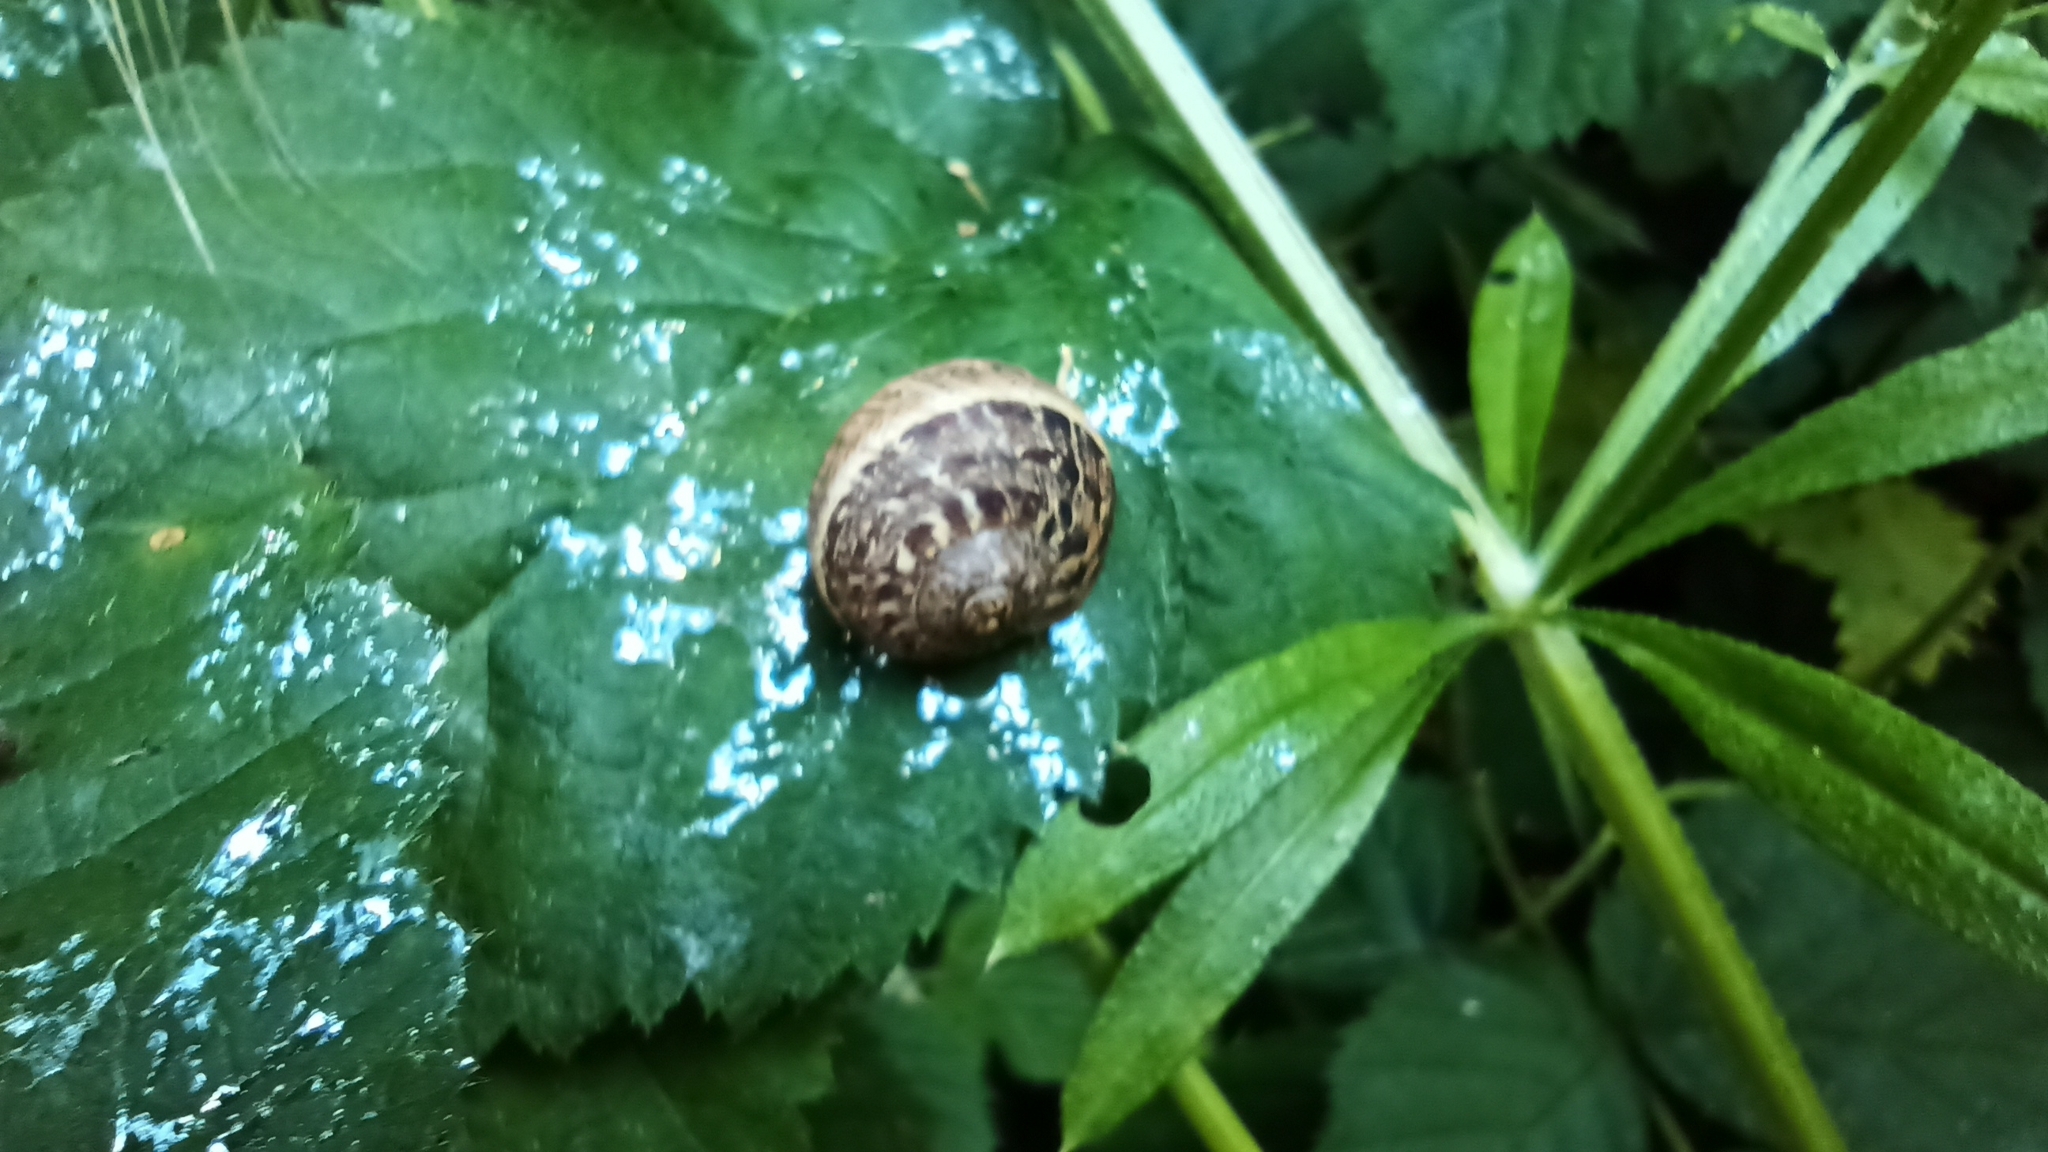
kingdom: Animalia
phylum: Mollusca
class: Gastropoda
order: Stylommatophora
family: Helicidae
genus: Cornu
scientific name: Cornu aspersum
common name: Brown garden snail
